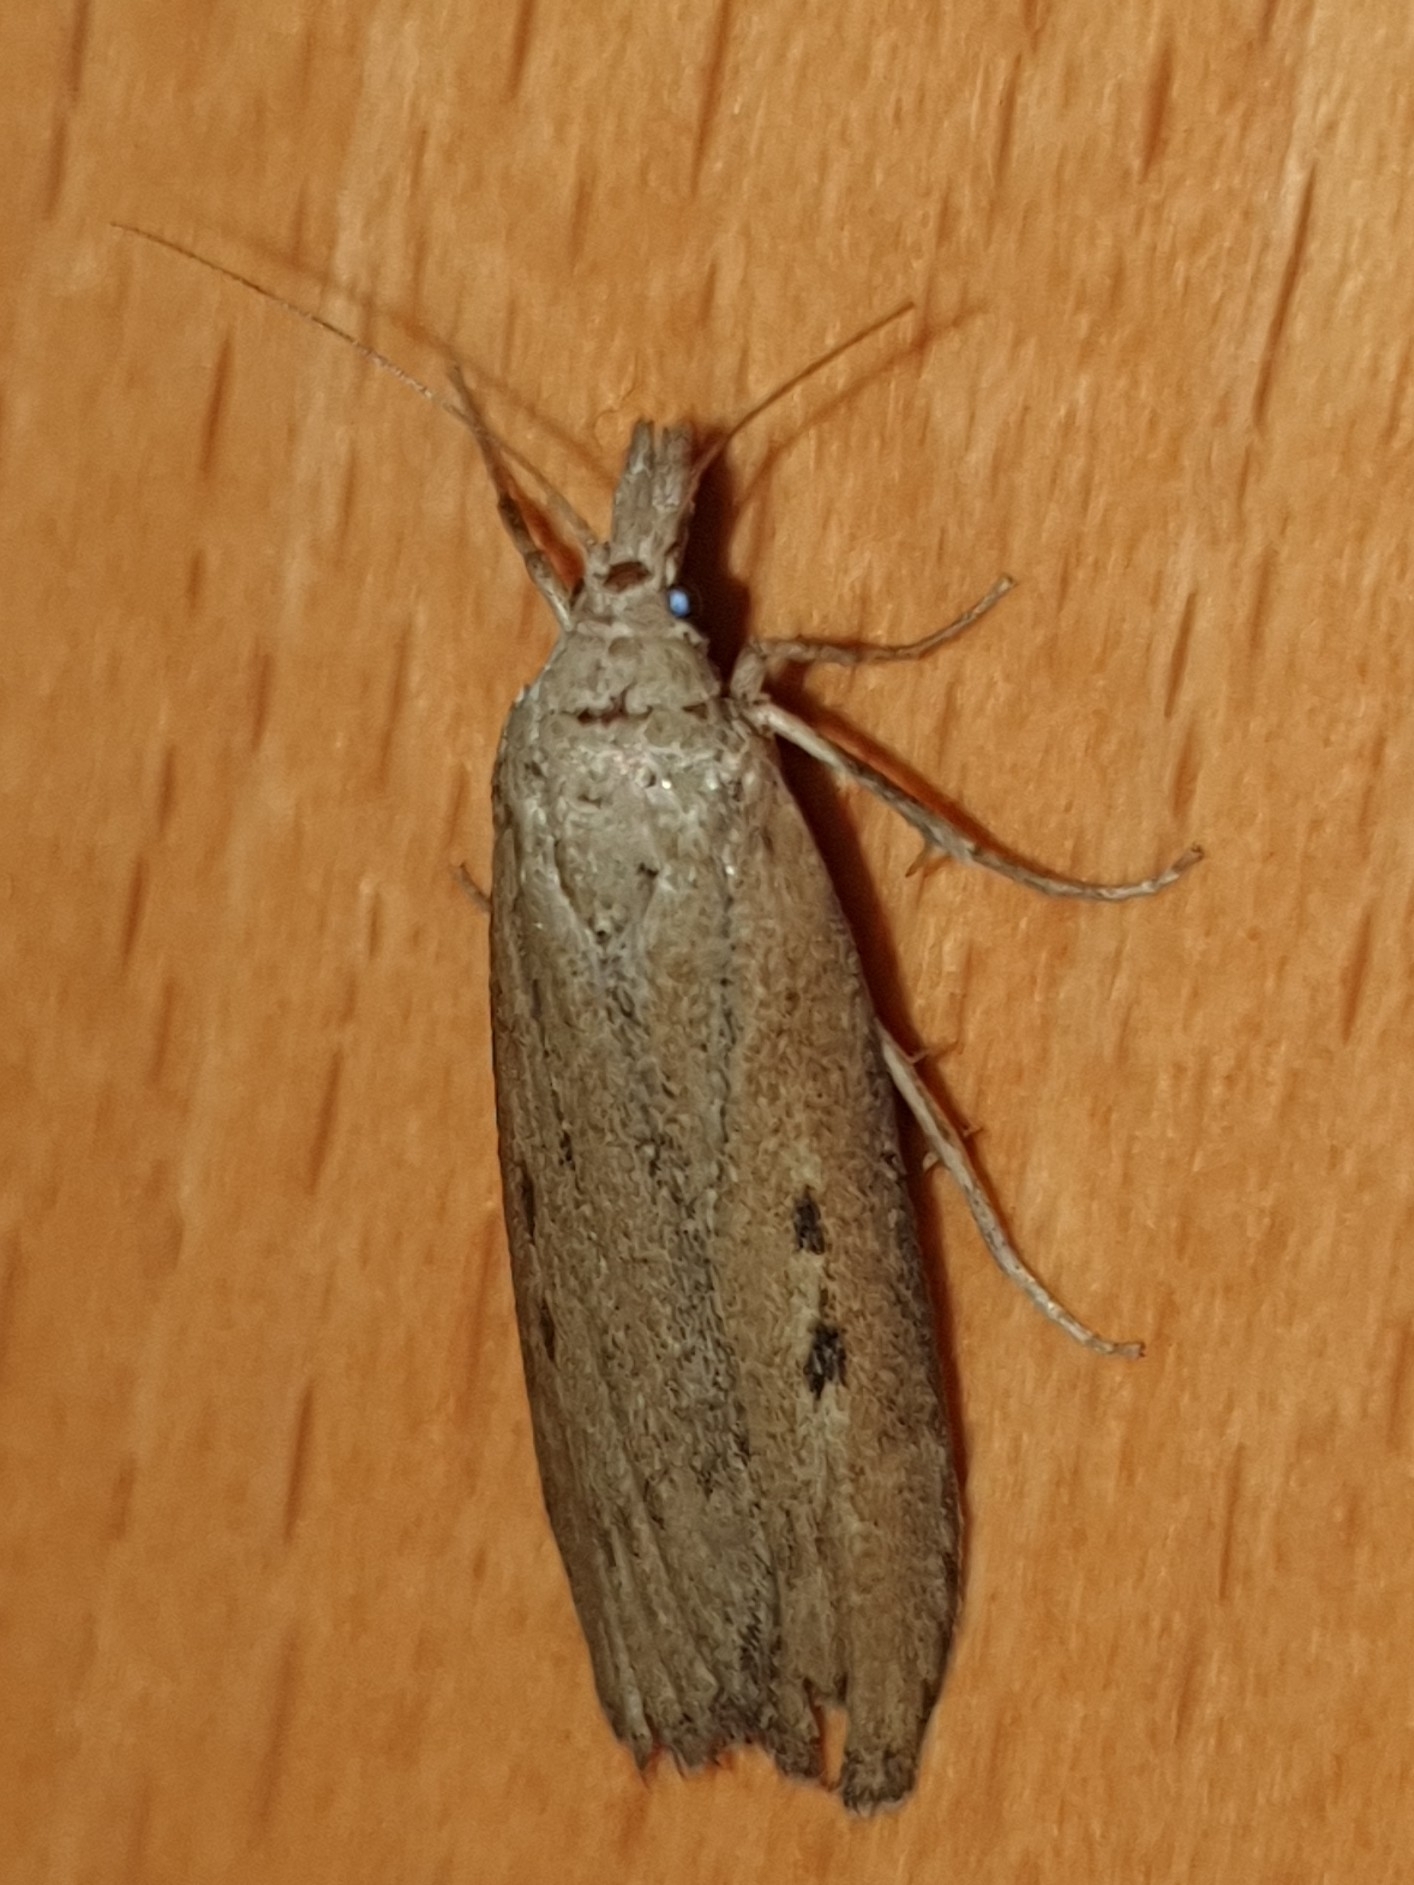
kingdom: Animalia
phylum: Arthropoda
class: Insecta
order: Lepidoptera
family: Pyralidae
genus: Aphomia
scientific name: Aphomia zelleri
